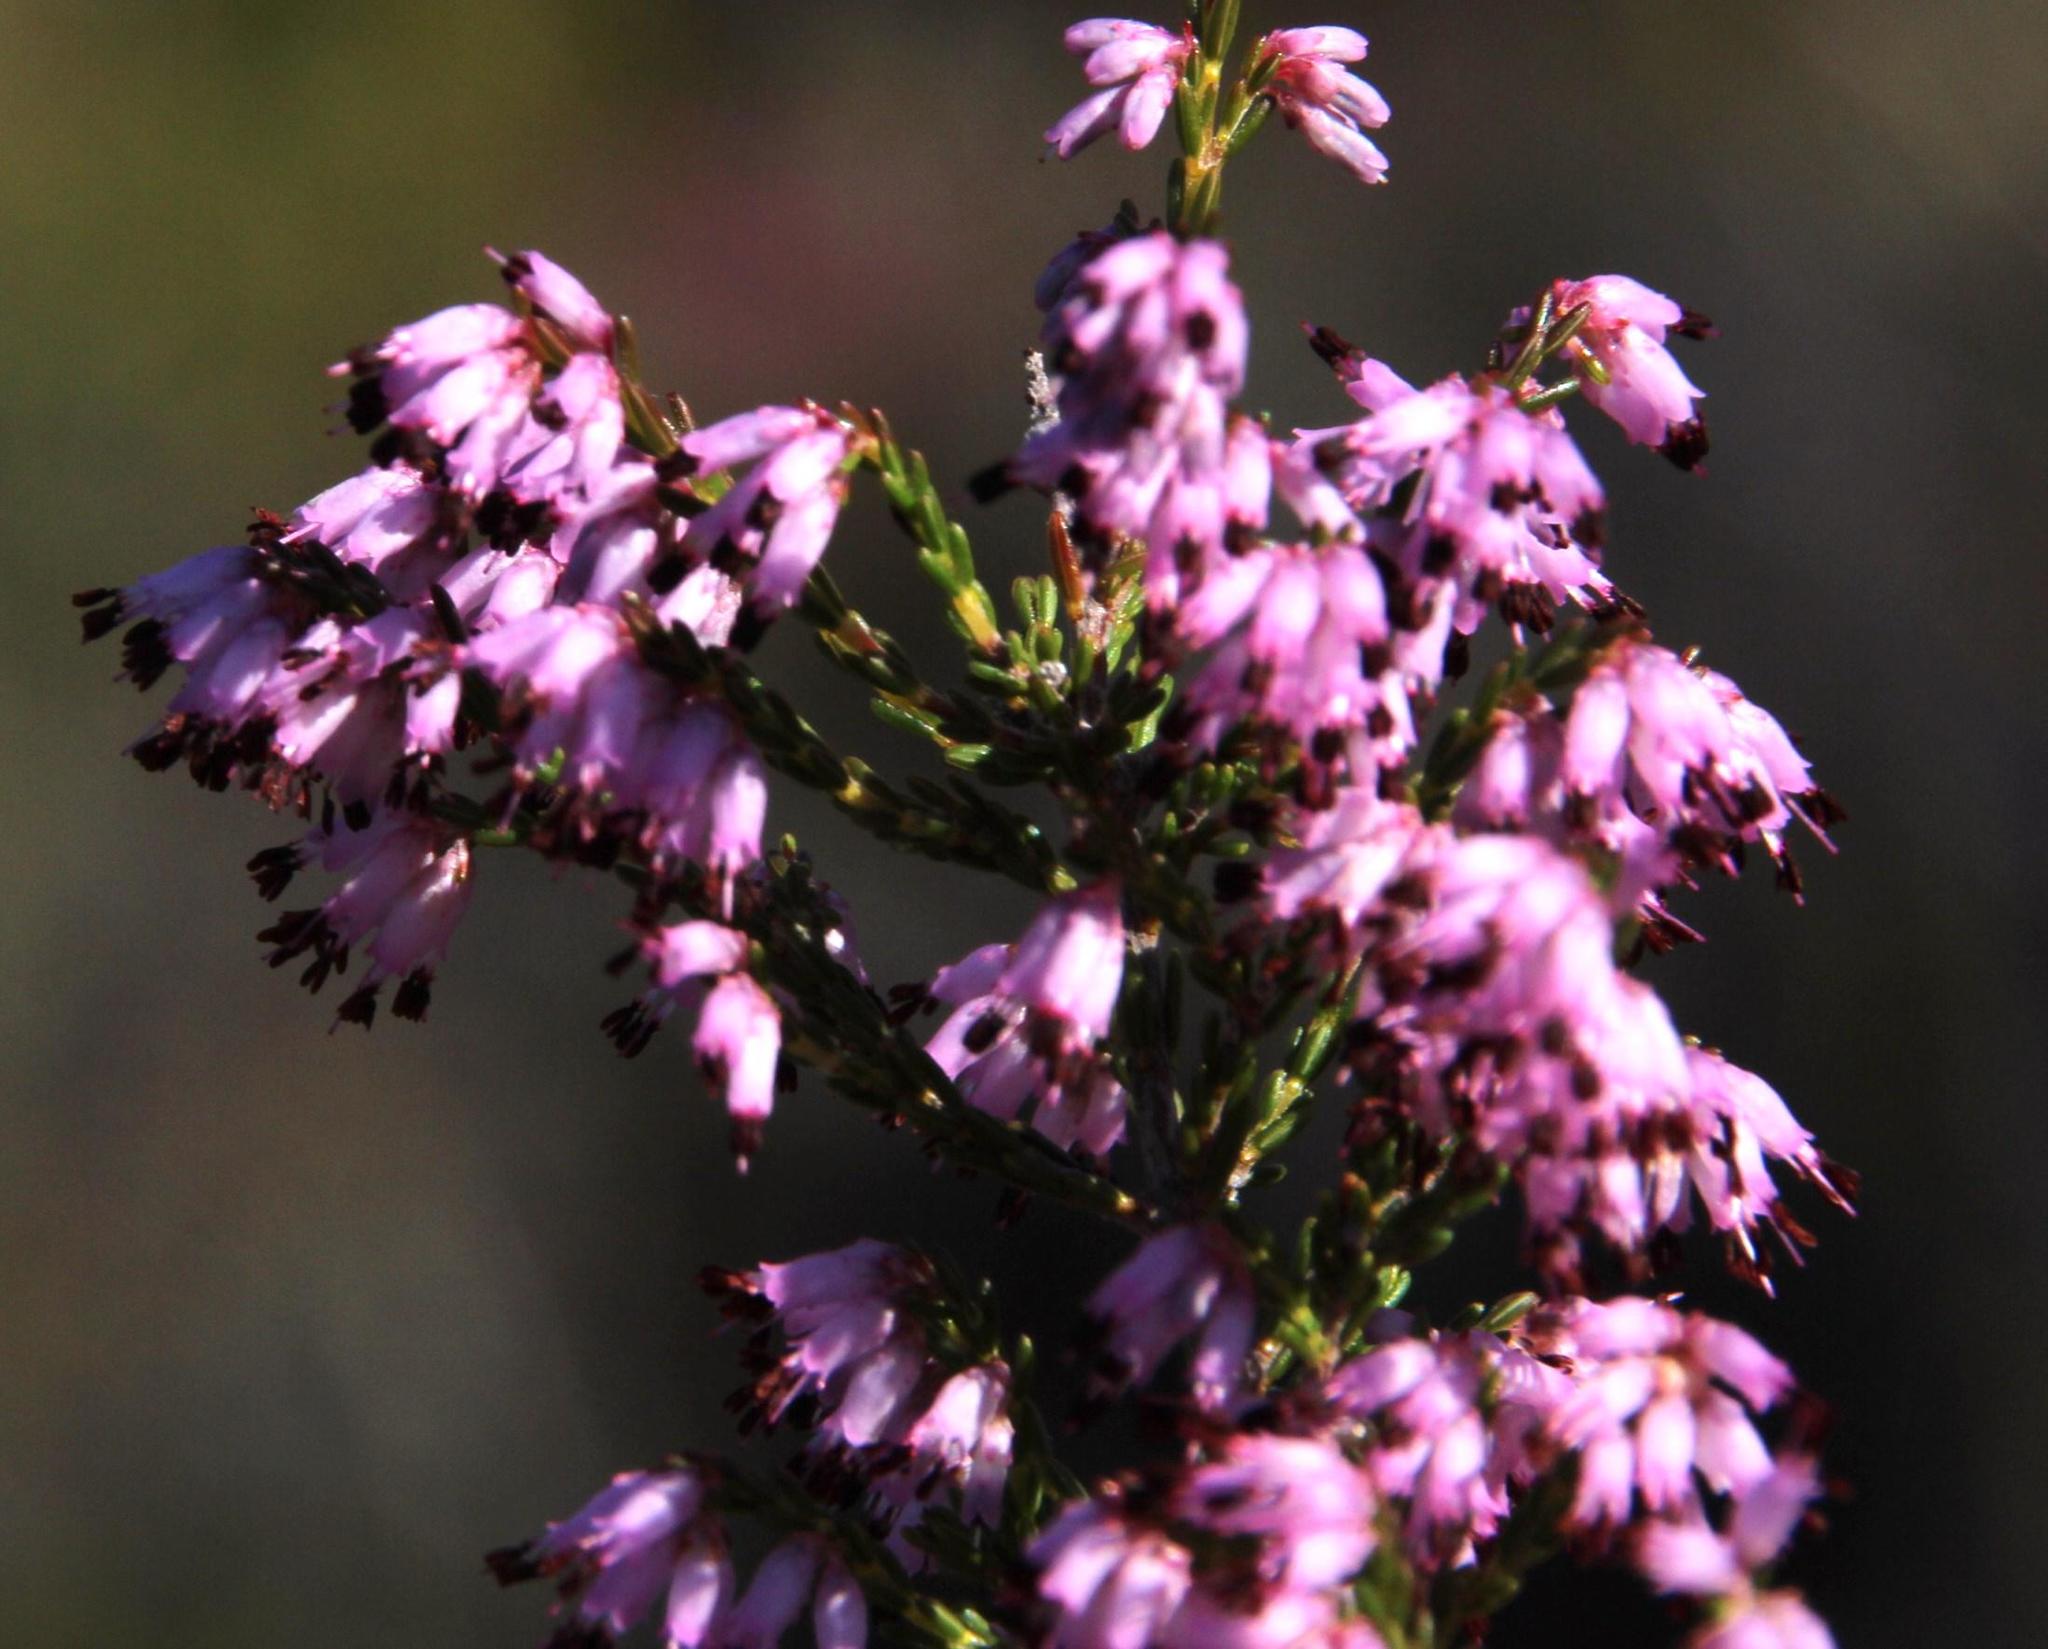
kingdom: Plantae
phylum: Tracheophyta
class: Magnoliopsida
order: Ericales
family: Ericaceae
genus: Erica
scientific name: Erica rosacea
